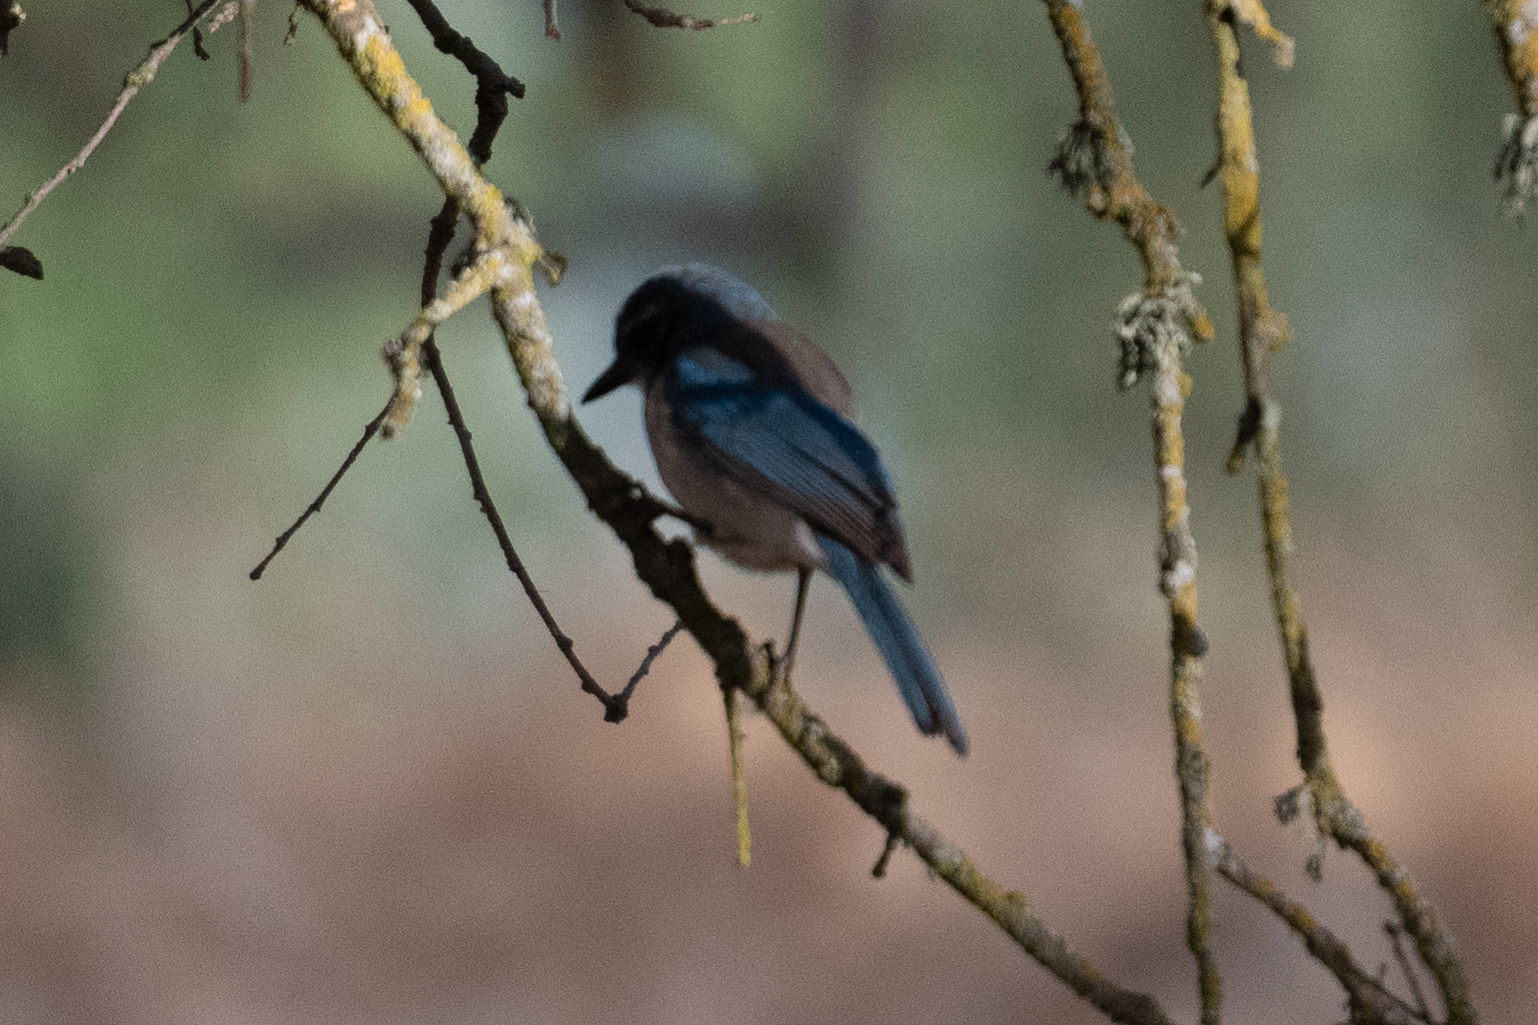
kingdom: Animalia
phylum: Chordata
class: Aves
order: Passeriformes
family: Corvidae
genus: Aphelocoma
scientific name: Aphelocoma californica
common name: California scrub-jay
